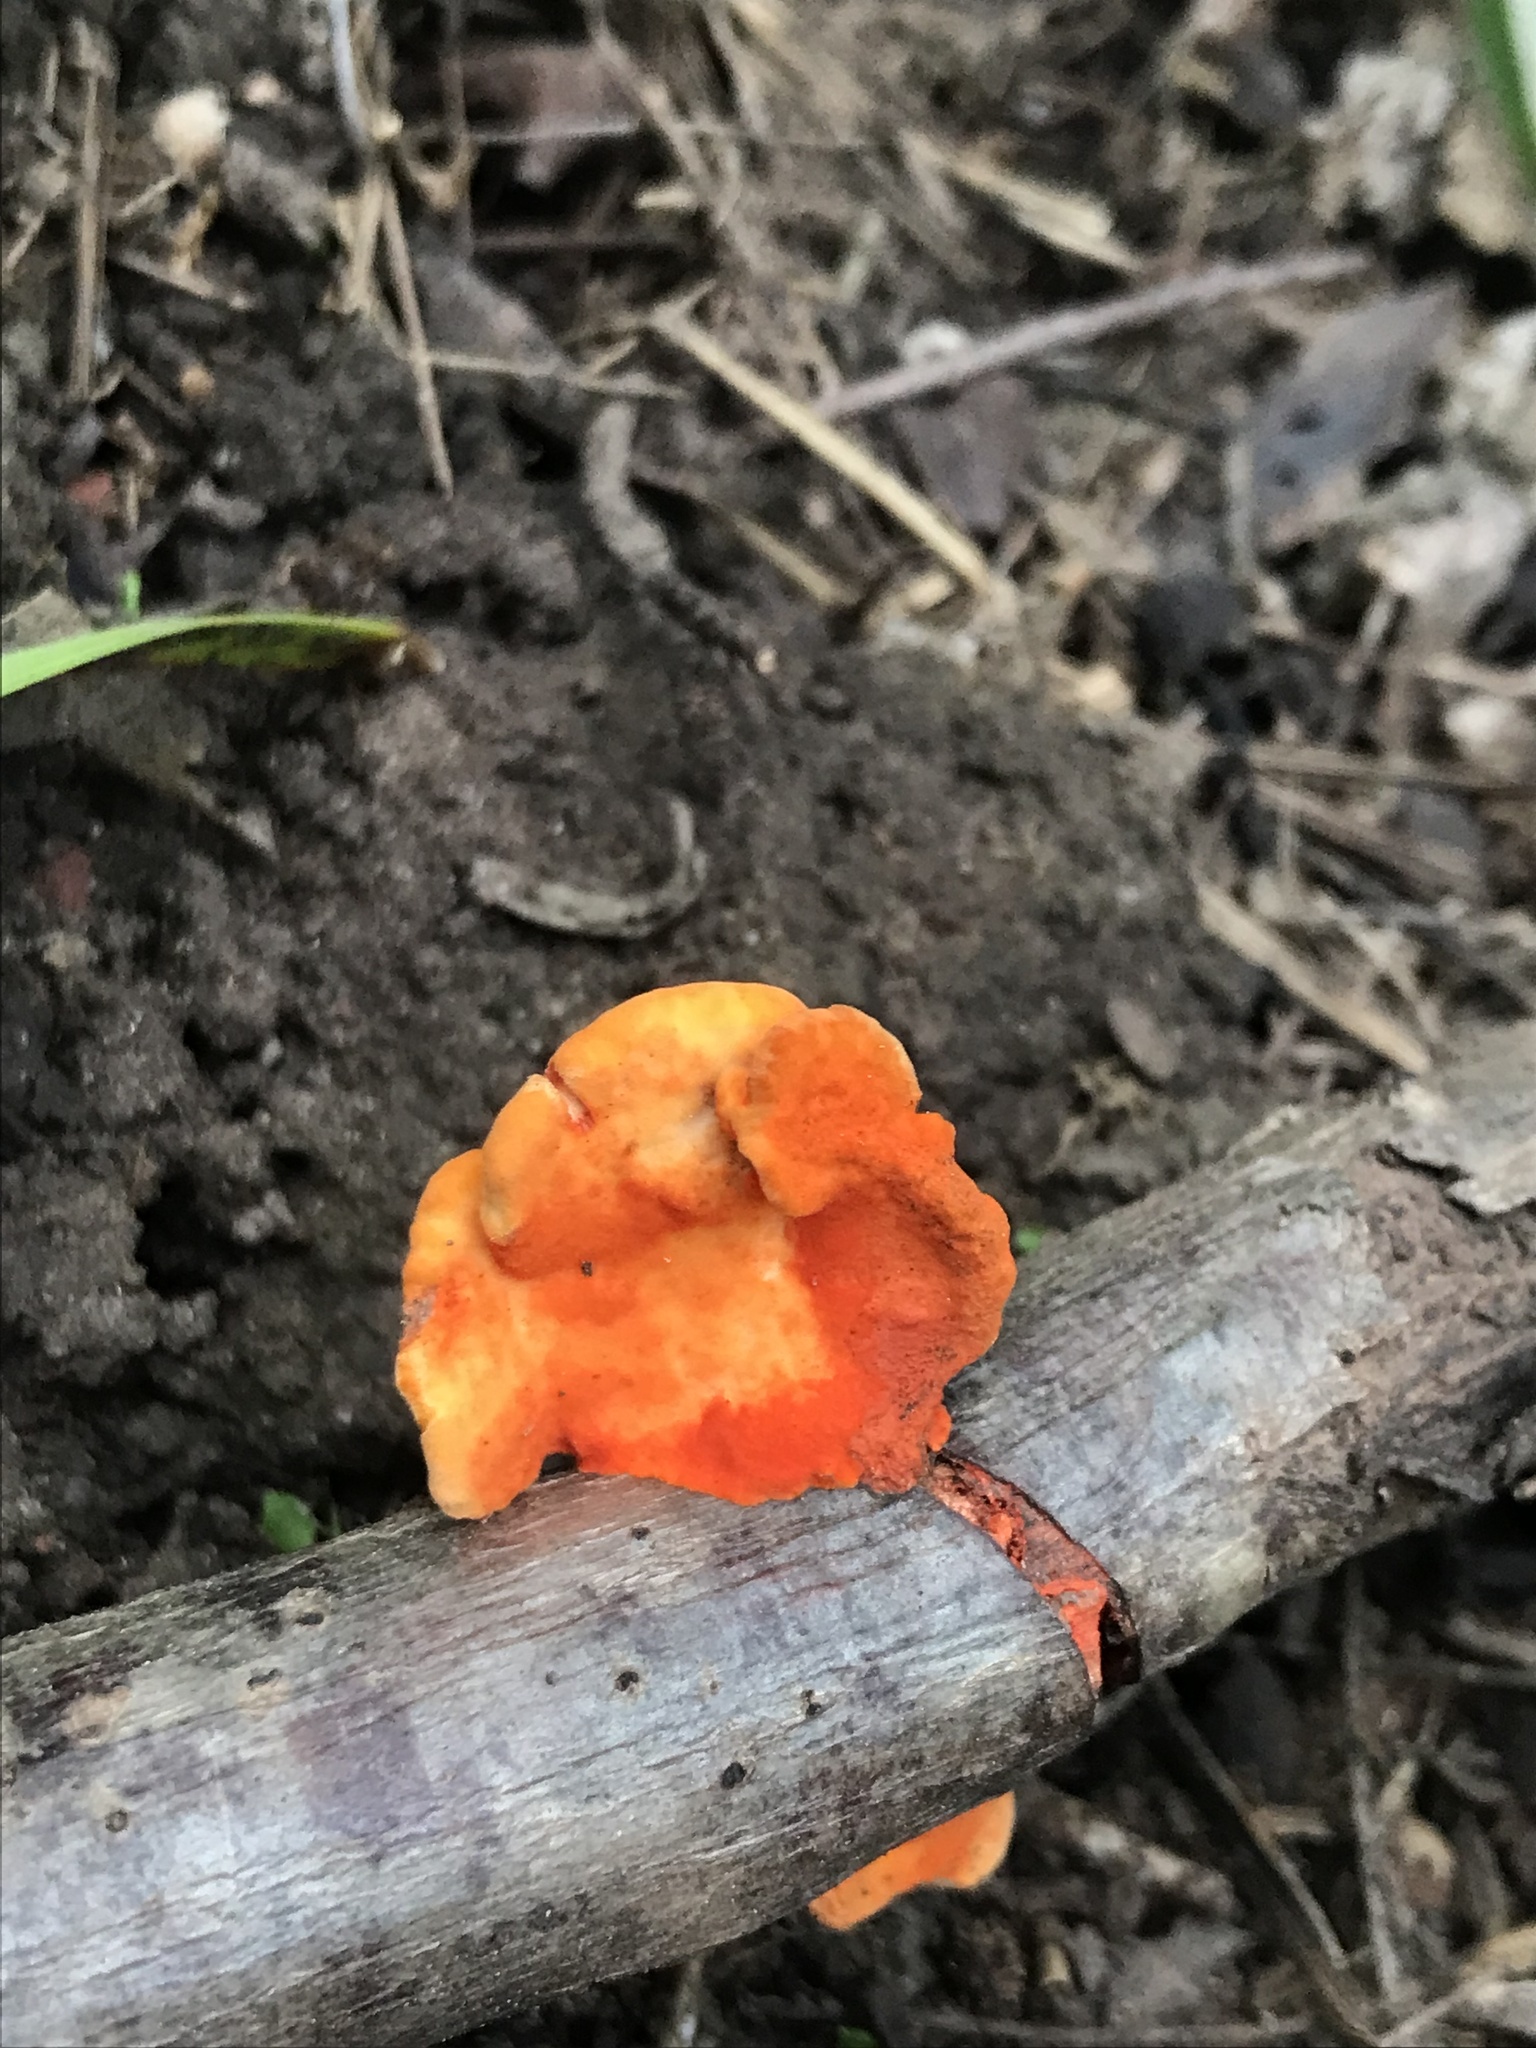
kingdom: Fungi
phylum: Basidiomycota
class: Agaricomycetes
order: Polyporales
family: Polyporaceae
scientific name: Polyporaceae
